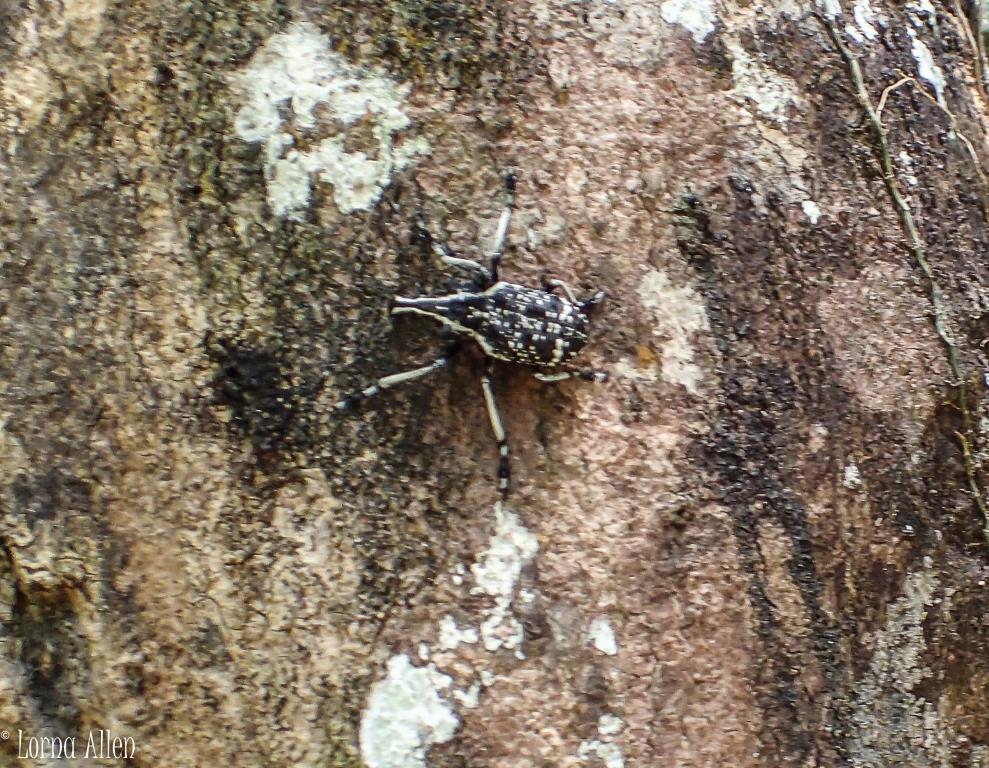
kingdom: Animalia
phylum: Arthropoda
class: Insecta
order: Coleoptera
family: Anthribidae
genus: Tophoderes
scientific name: Tophoderes frenatus
